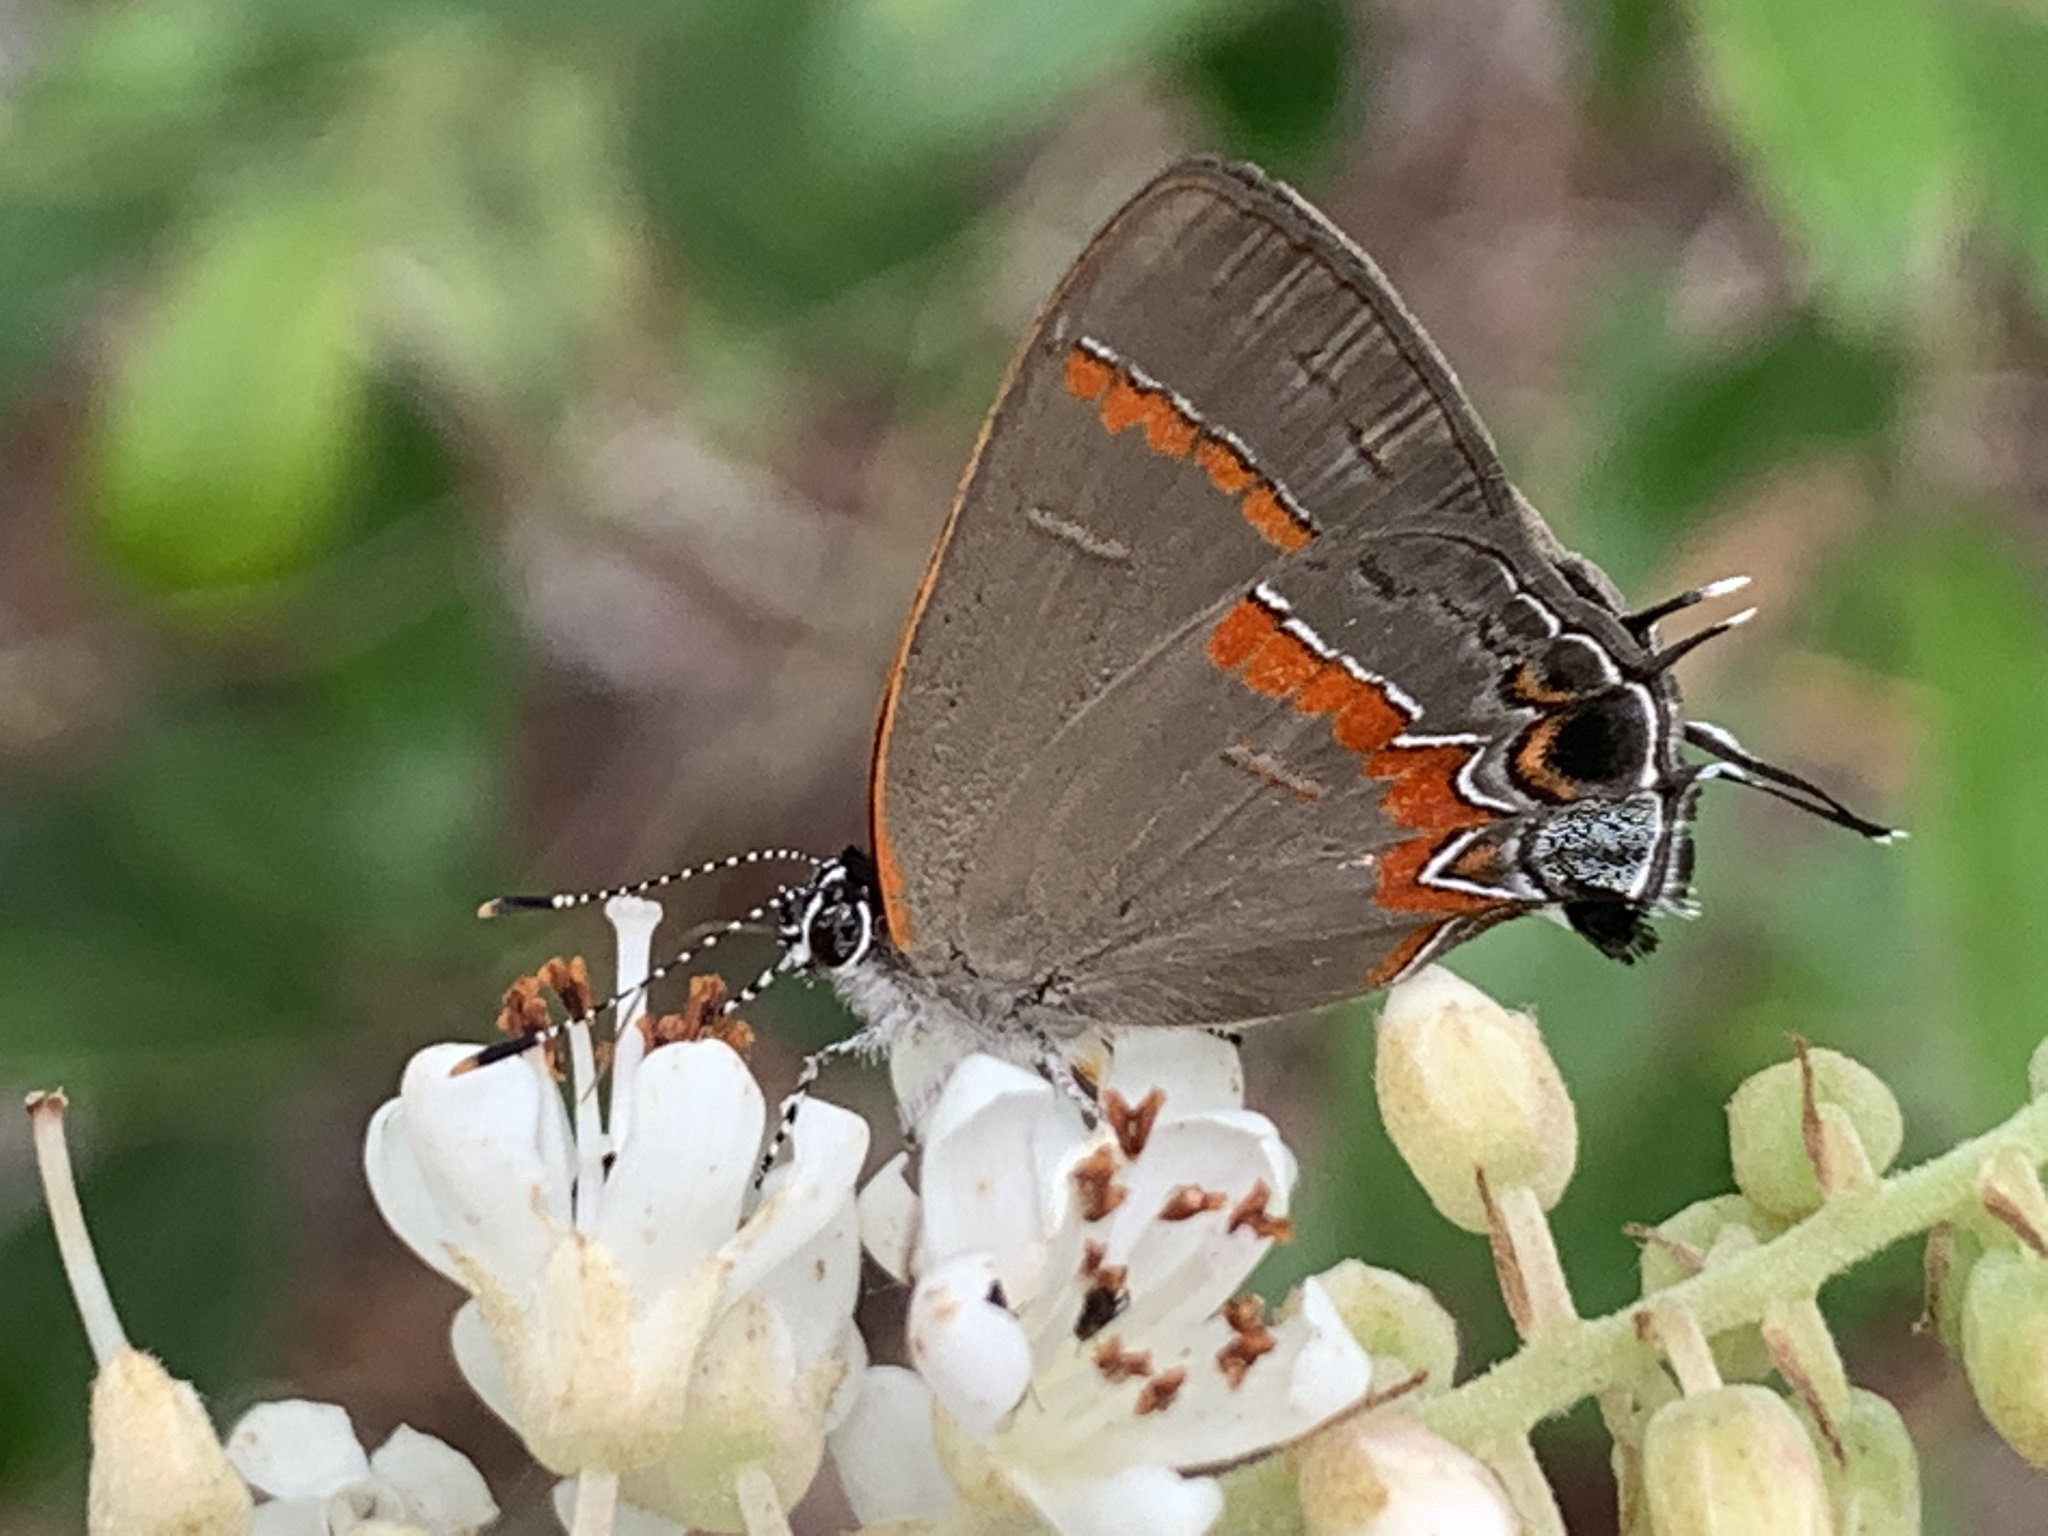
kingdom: Animalia
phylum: Arthropoda
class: Insecta
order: Lepidoptera
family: Lycaenidae
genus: Calycopis
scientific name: Calycopis cecrops
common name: Red-banded hairstreak
